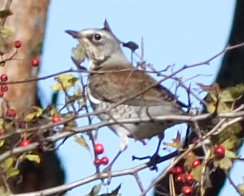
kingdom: Animalia
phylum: Chordata
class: Aves
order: Passeriformes
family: Turdidae
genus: Turdus
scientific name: Turdus pilaris
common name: Fieldfare
